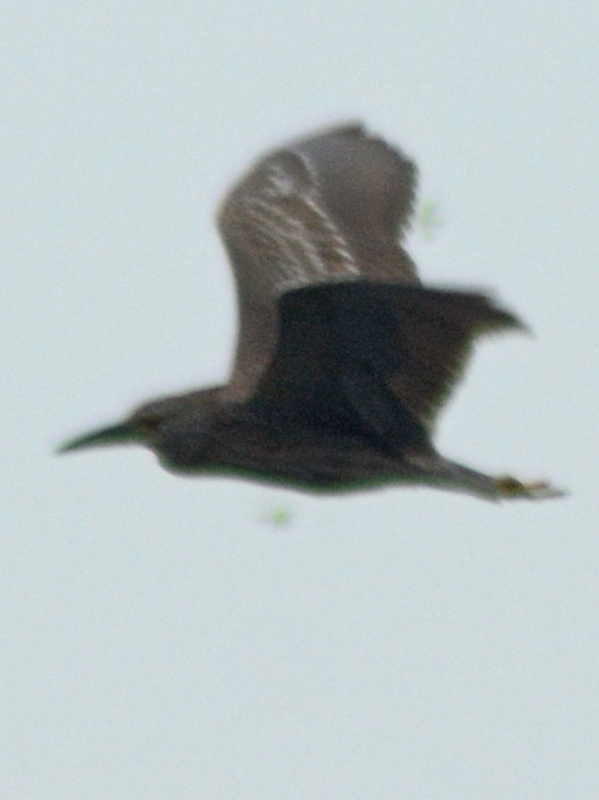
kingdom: Animalia
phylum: Chordata
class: Aves
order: Pelecaniformes
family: Ardeidae
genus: Nycticorax
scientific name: Nycticorax nycticorax
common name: Black-crowned night heron
